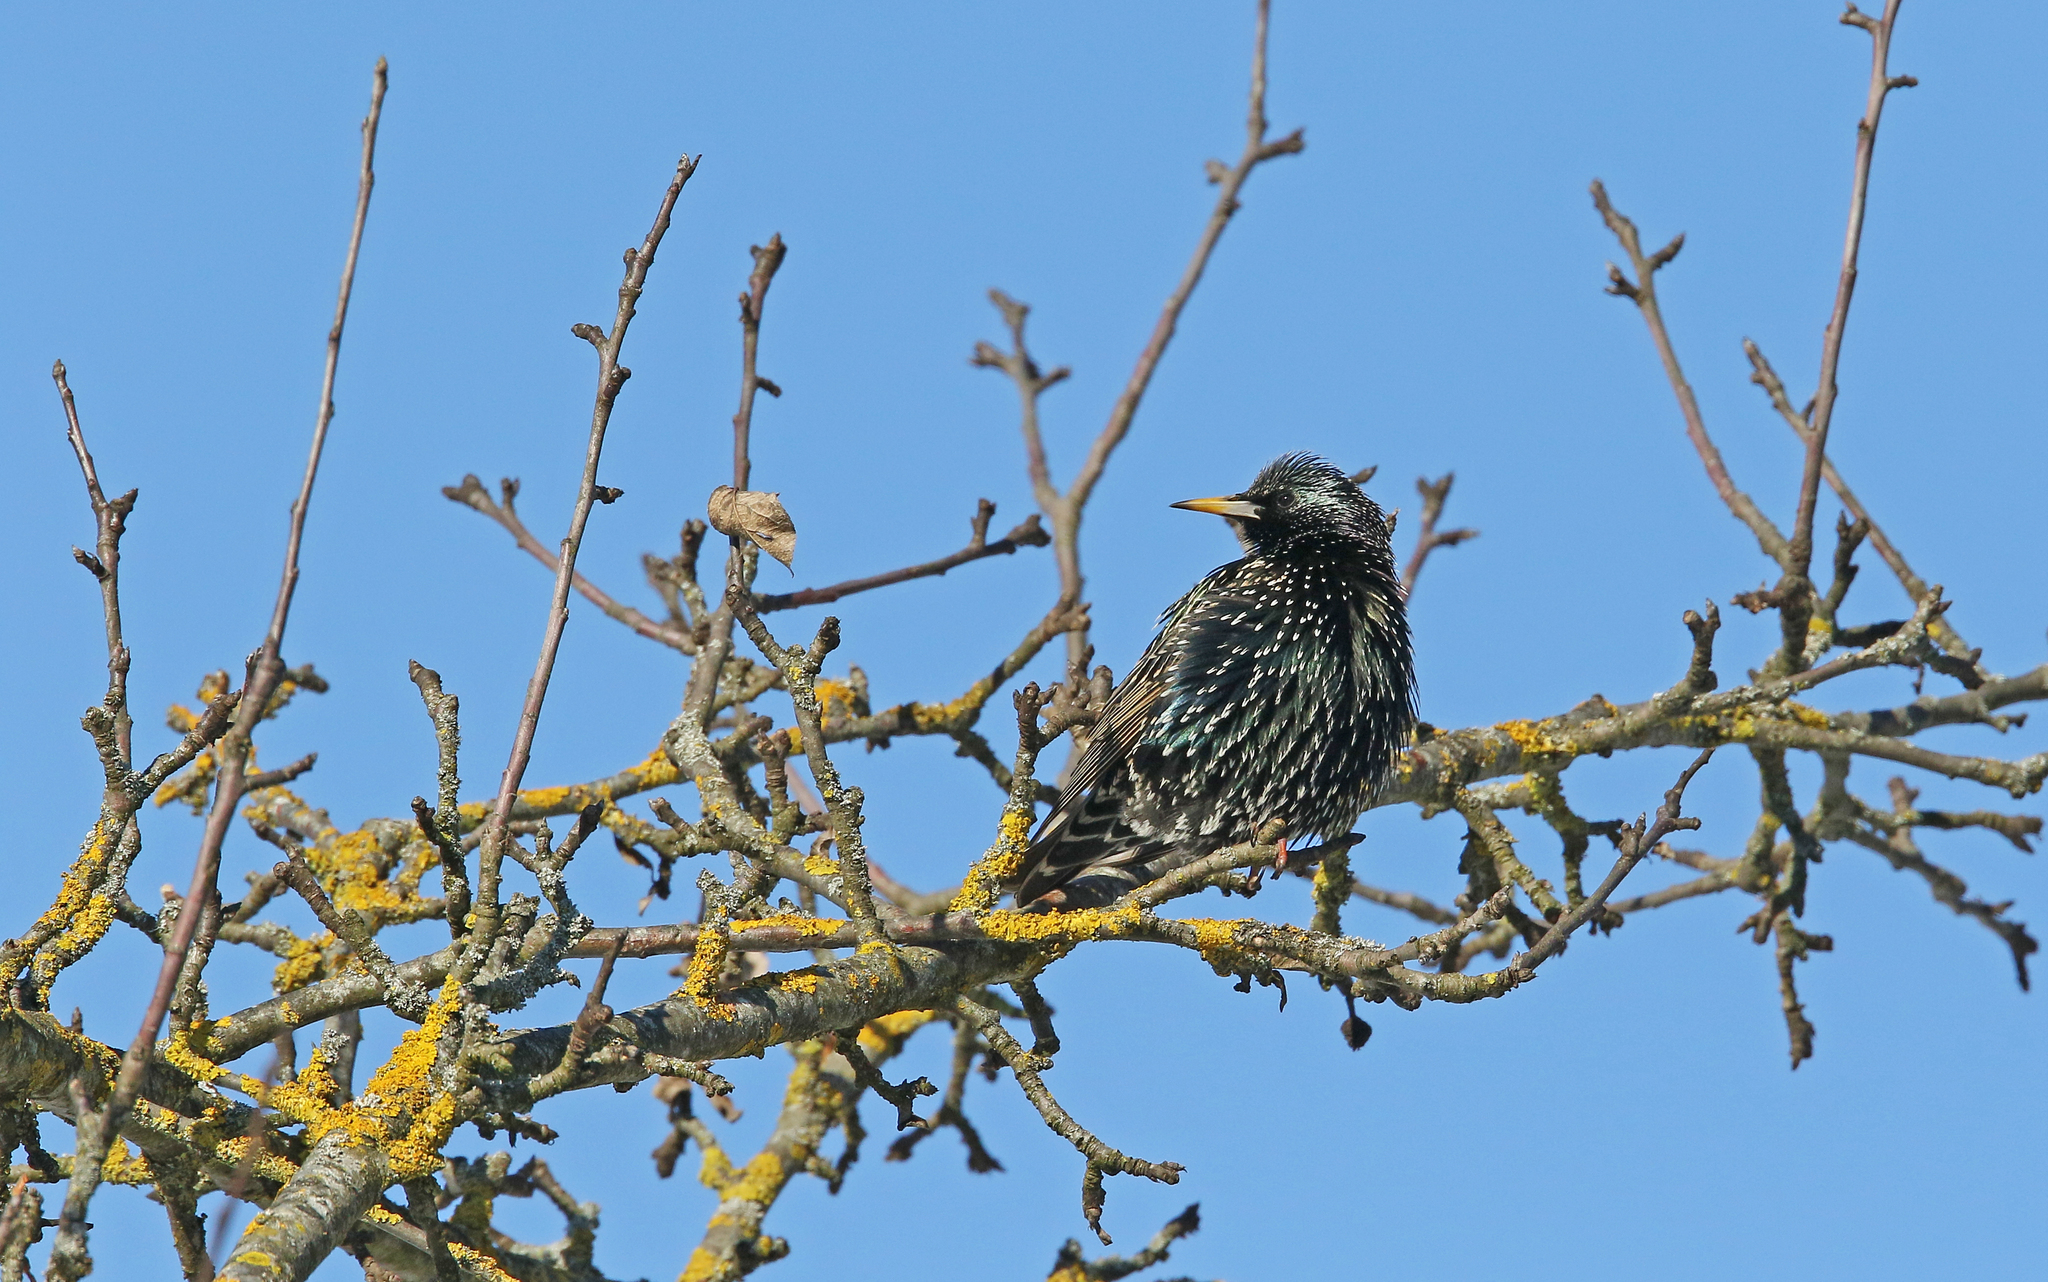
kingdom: Animalia
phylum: Chordata
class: Aves
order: Passeriformes
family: Sturnidae
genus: Sturnus
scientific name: Sturnus vulgaris
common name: Common starling
